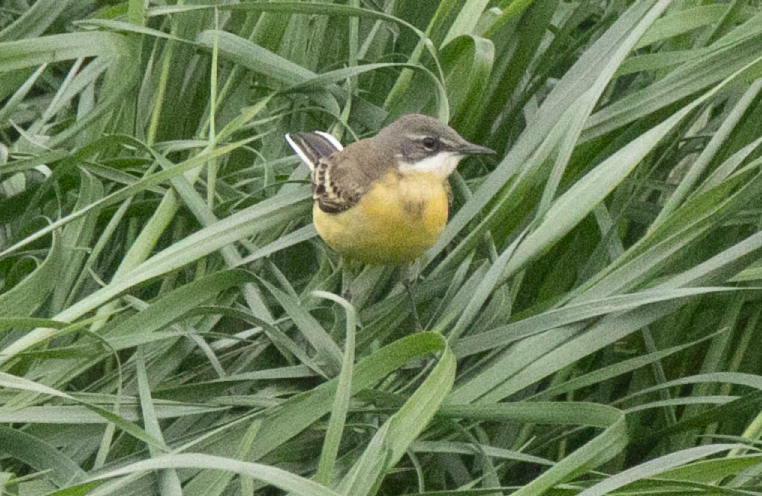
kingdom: Animalia
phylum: Chordata
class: Aves
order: Passeriformes
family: Motacillidae
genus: Motacilla
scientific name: Motacilla flava
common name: Western yellow wagtail
